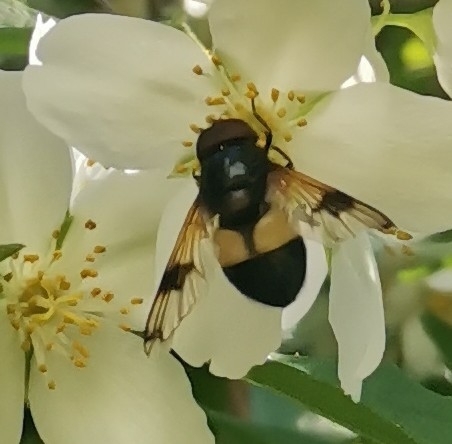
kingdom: Animalia
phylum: Arthropoda
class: Insecta
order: Diptera
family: Syrphidae
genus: Volucella
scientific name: Volucella pellucens
